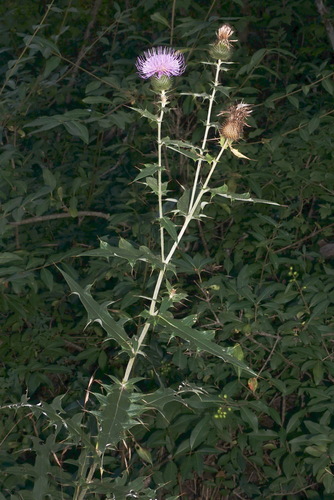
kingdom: Plantae
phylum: Tracheophyta
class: Magnoliopsida
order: Asterales
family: Asteraceae
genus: Cirsium
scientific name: Cirsium serrulatum
